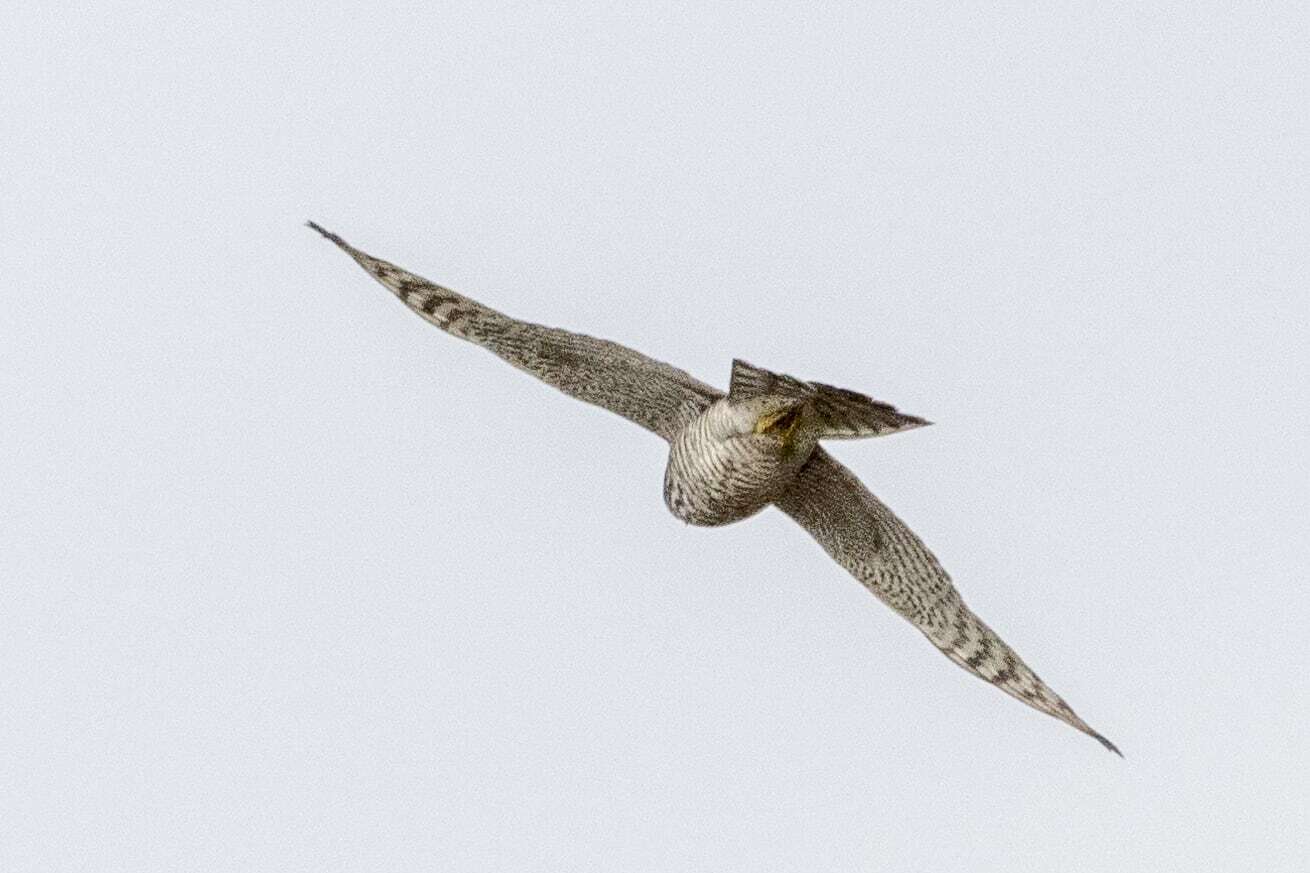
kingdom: Animalia
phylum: Chordata
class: Aves
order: Accipitriformes
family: Accipitridae
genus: Accipiter
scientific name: Accipiter nisus
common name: Eurasian sparrowhawk
